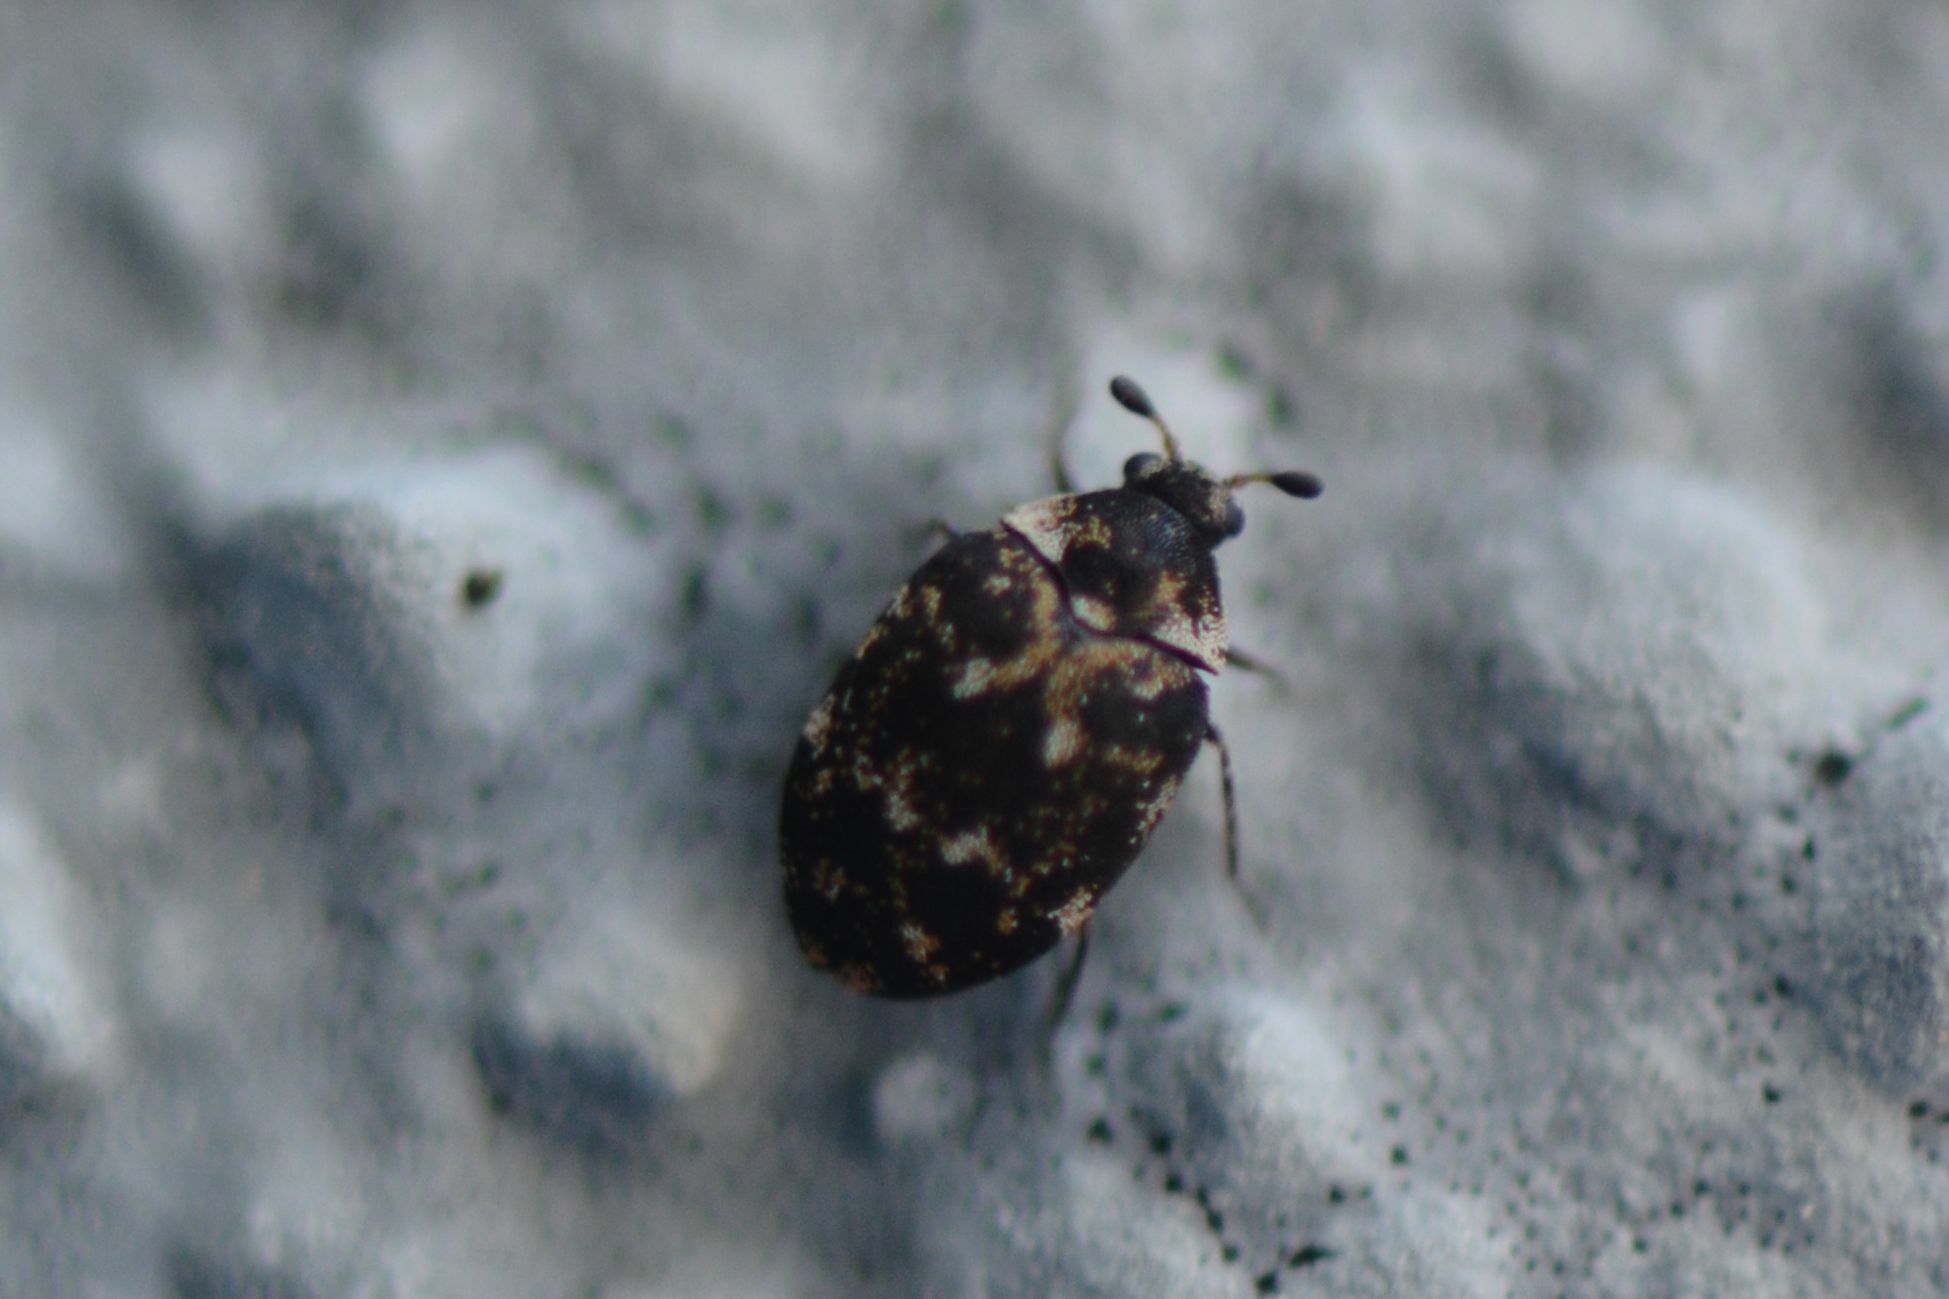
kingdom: Animalia
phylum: Arthropoda
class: Insecta
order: Coleoptera
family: Dermestidae
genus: Anthrenus
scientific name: Anthrenus museorum
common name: Museum beetle
